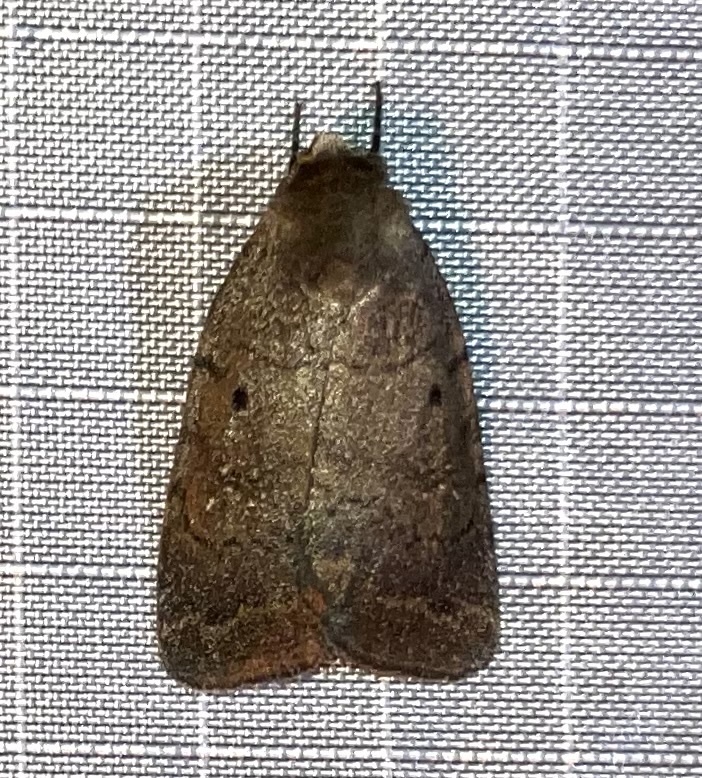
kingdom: Animalia
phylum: Arthropoda
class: Insecta
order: Lepidoptera
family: Noctuidae
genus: Athetis
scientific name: Athetis tarda
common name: Slowpoke moth
